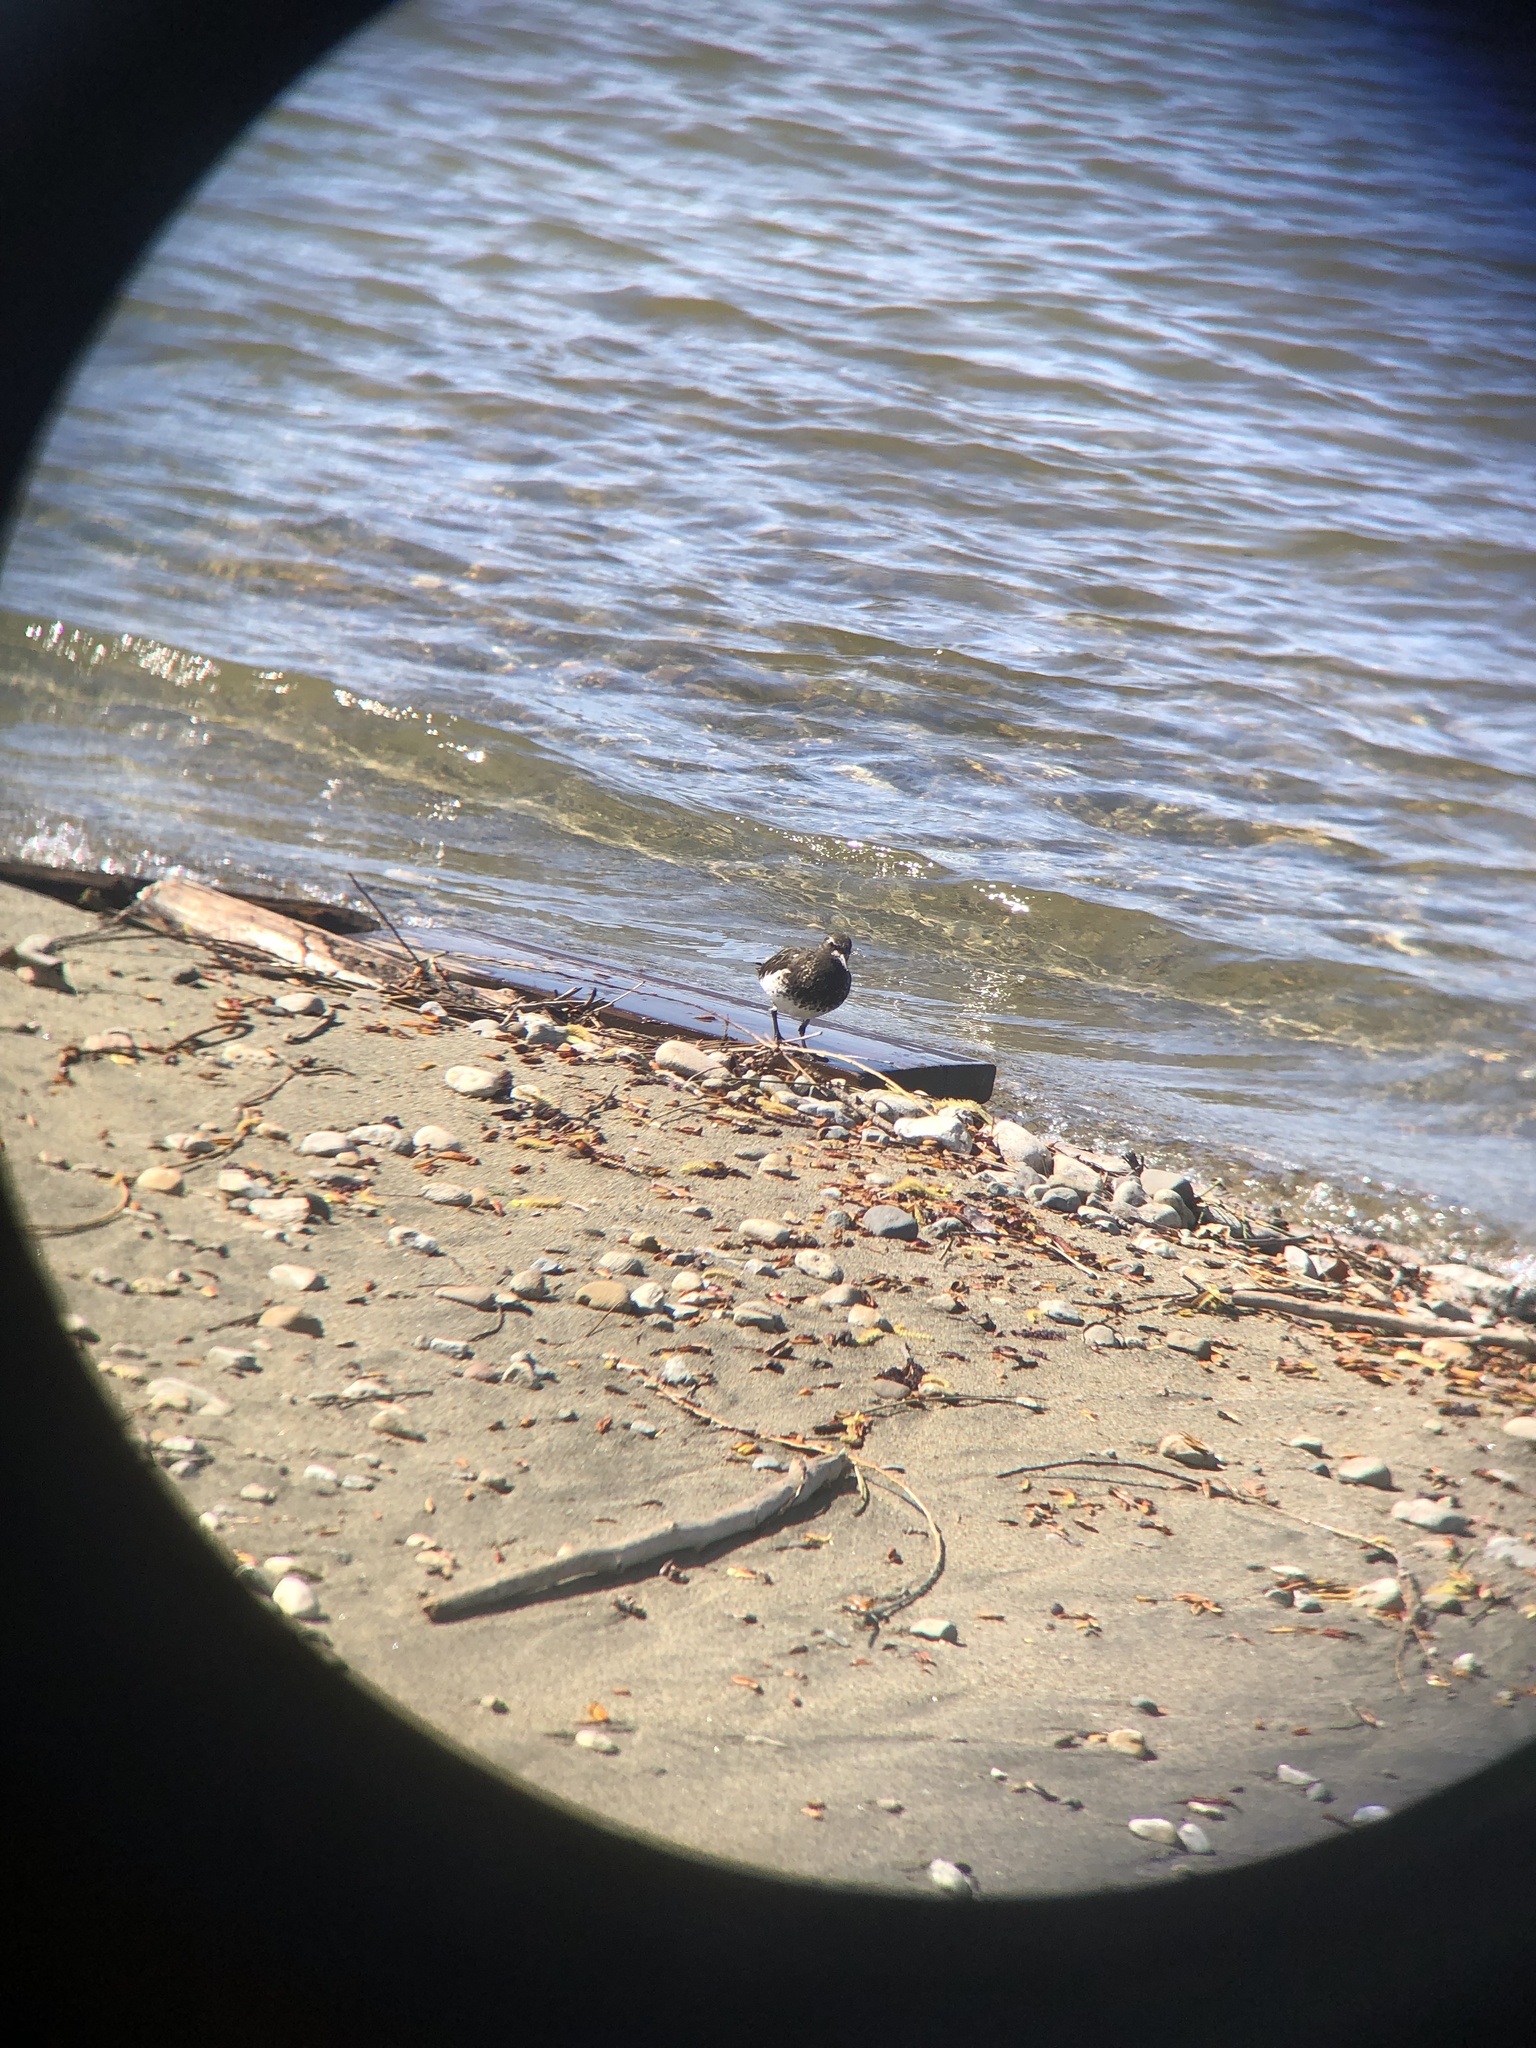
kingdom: Animalia
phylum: Chordata
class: Aves
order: Charadriiformes
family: Scolopacidae
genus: Arenaria
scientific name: Arenaria melanocephala
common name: Black turnstone
